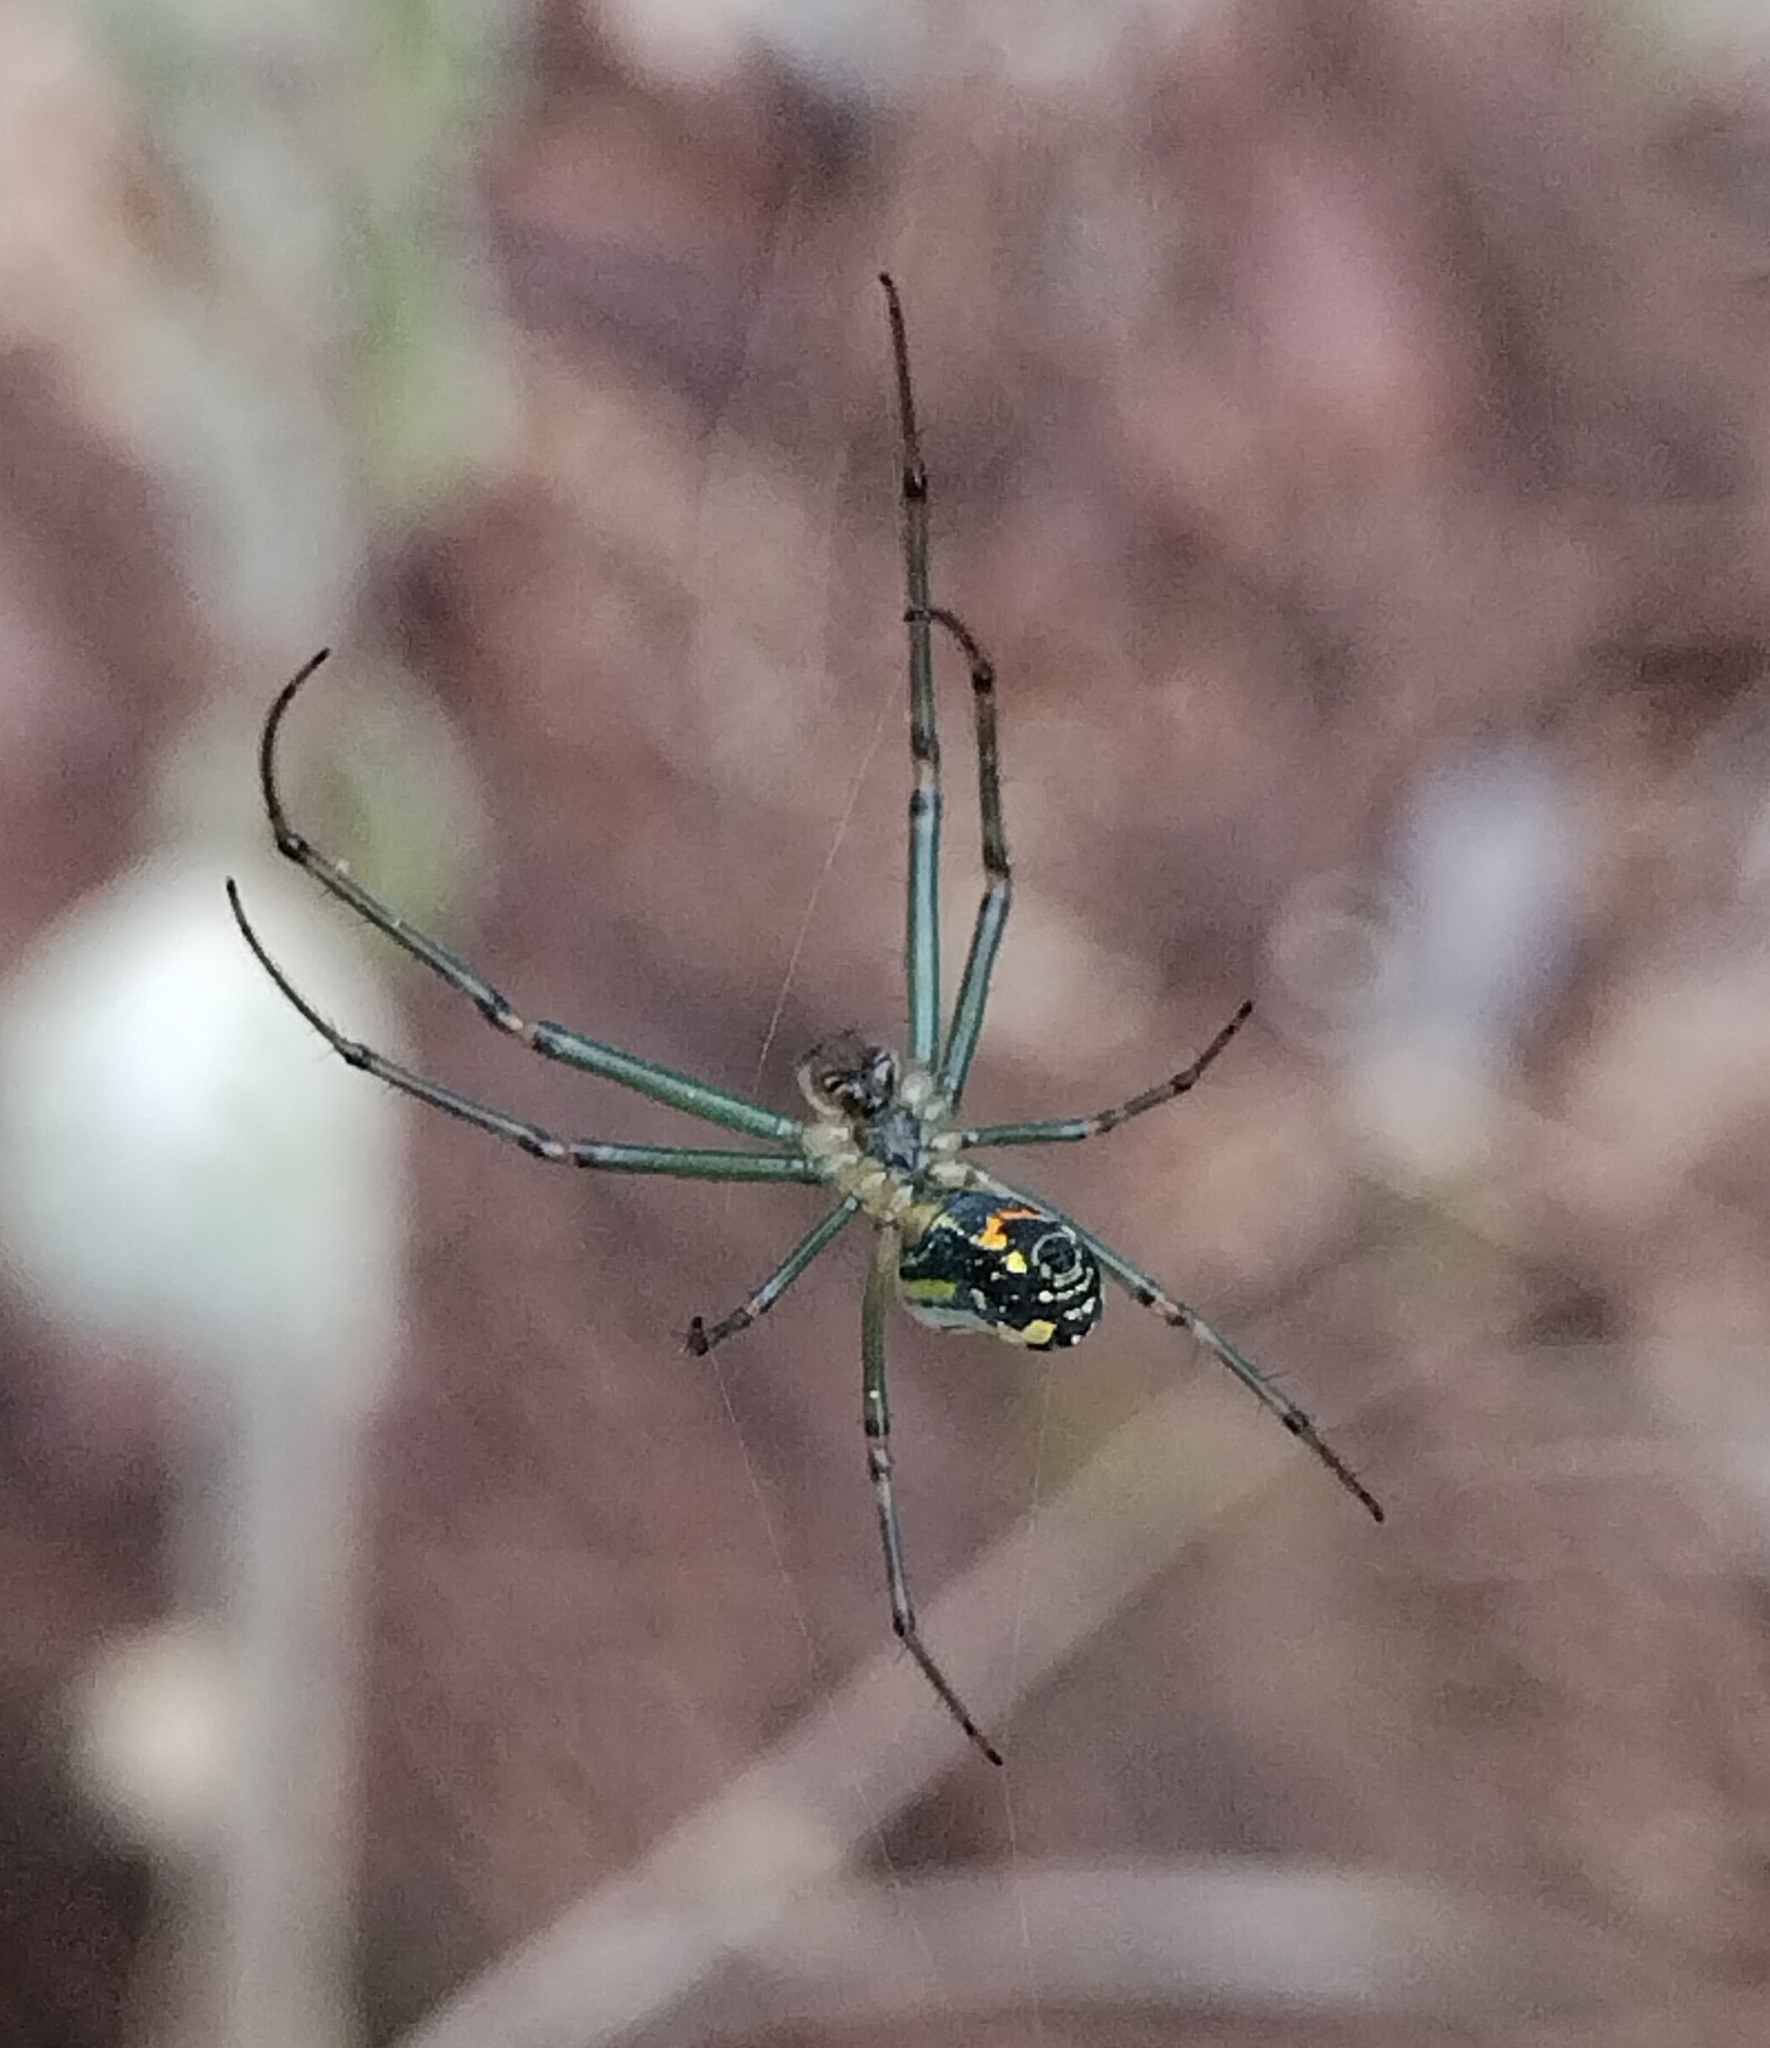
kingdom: Animalia
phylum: Arthropoda
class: Arachnida
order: Araneae
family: Tetragnathidae
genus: Leucauge
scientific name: Leucauge venusta
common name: Longjawed orb weavers
